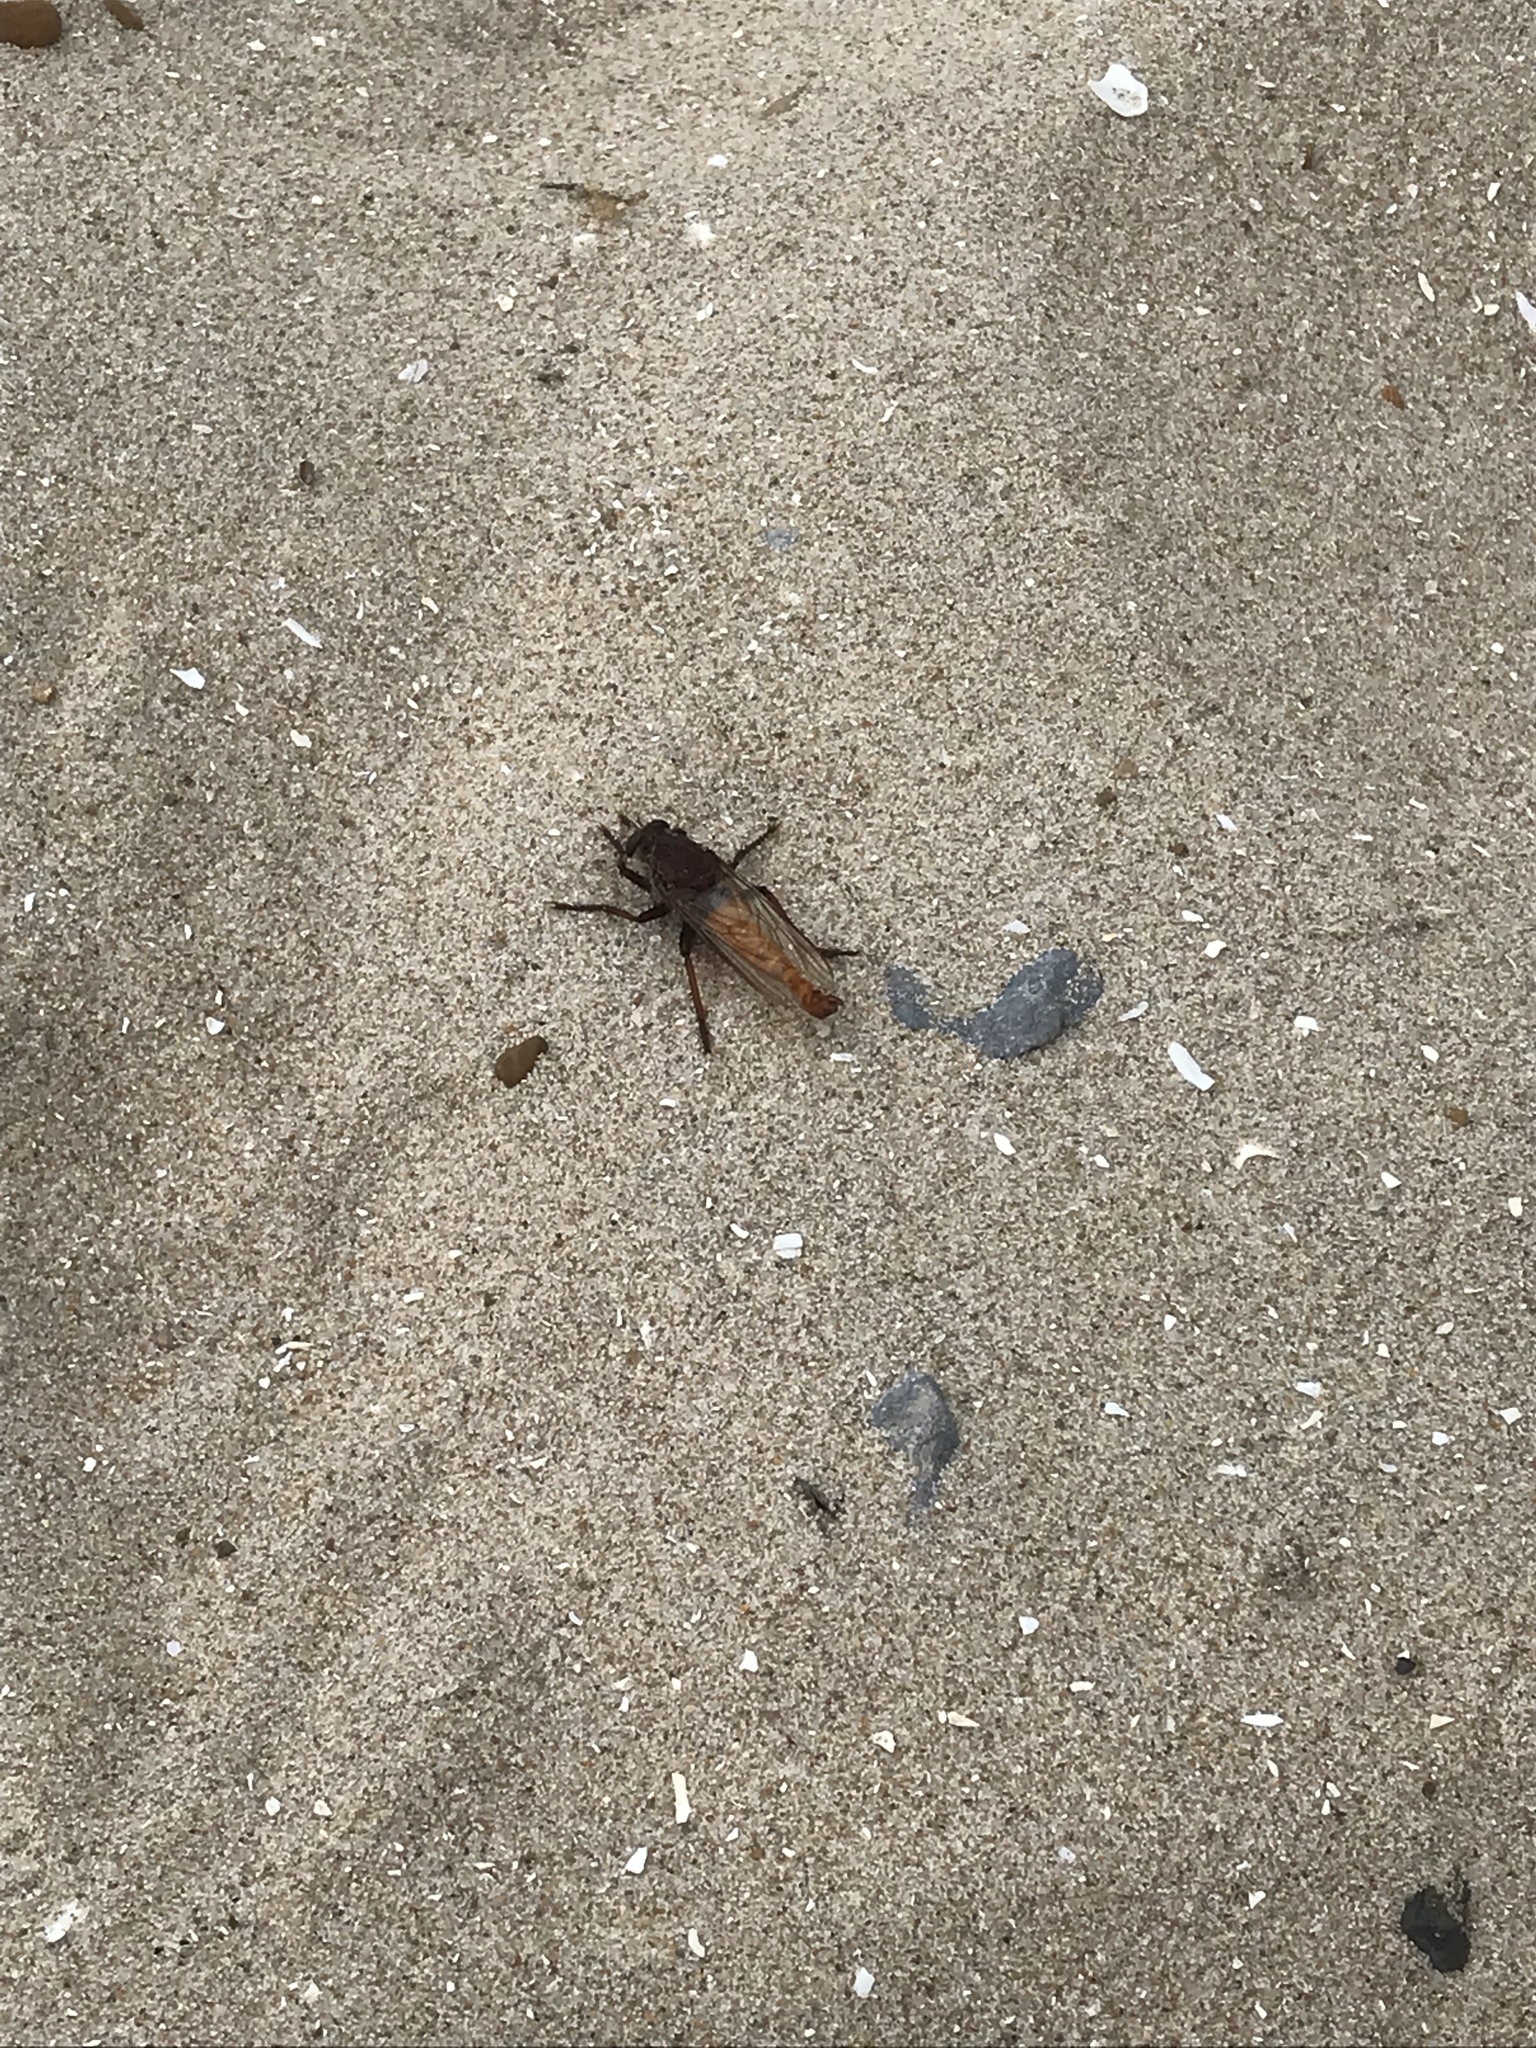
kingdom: Animalia
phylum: Arthropoda
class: Insecta
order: Diptera
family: Asilidae
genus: Proctacanthus
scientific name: Proctacanthus hinei
